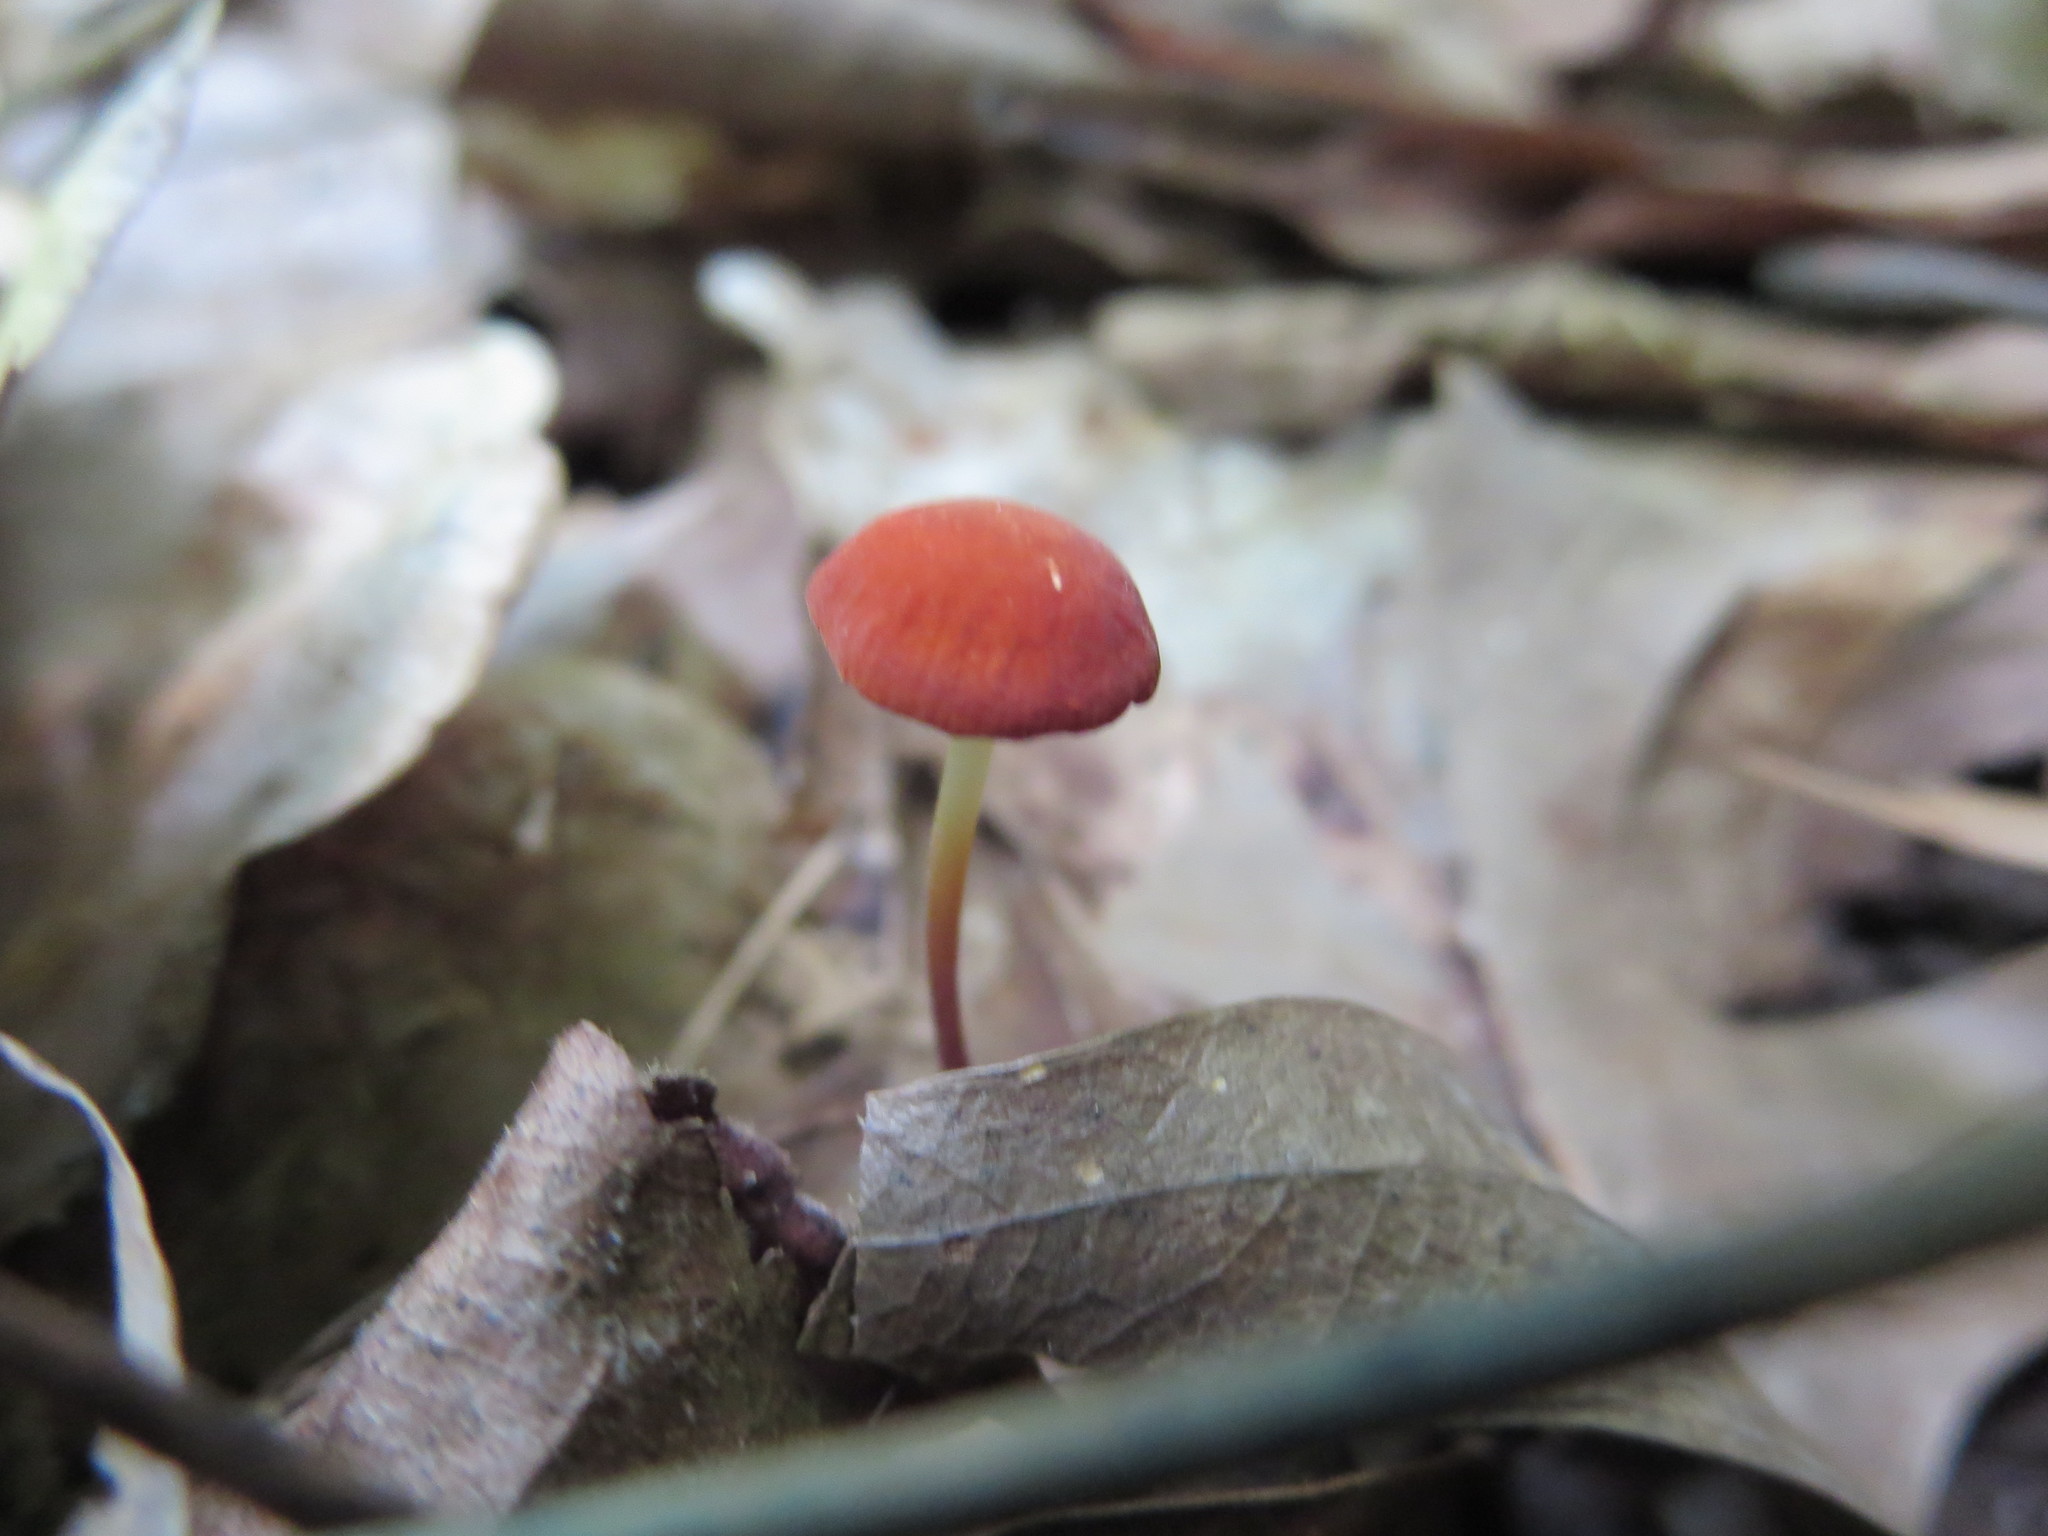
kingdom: Fungi
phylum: Basidiomycota
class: Agaricomycetes
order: Agaricales
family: Marasmiaceae
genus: Marasmius
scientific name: Marasmius sullivantii
